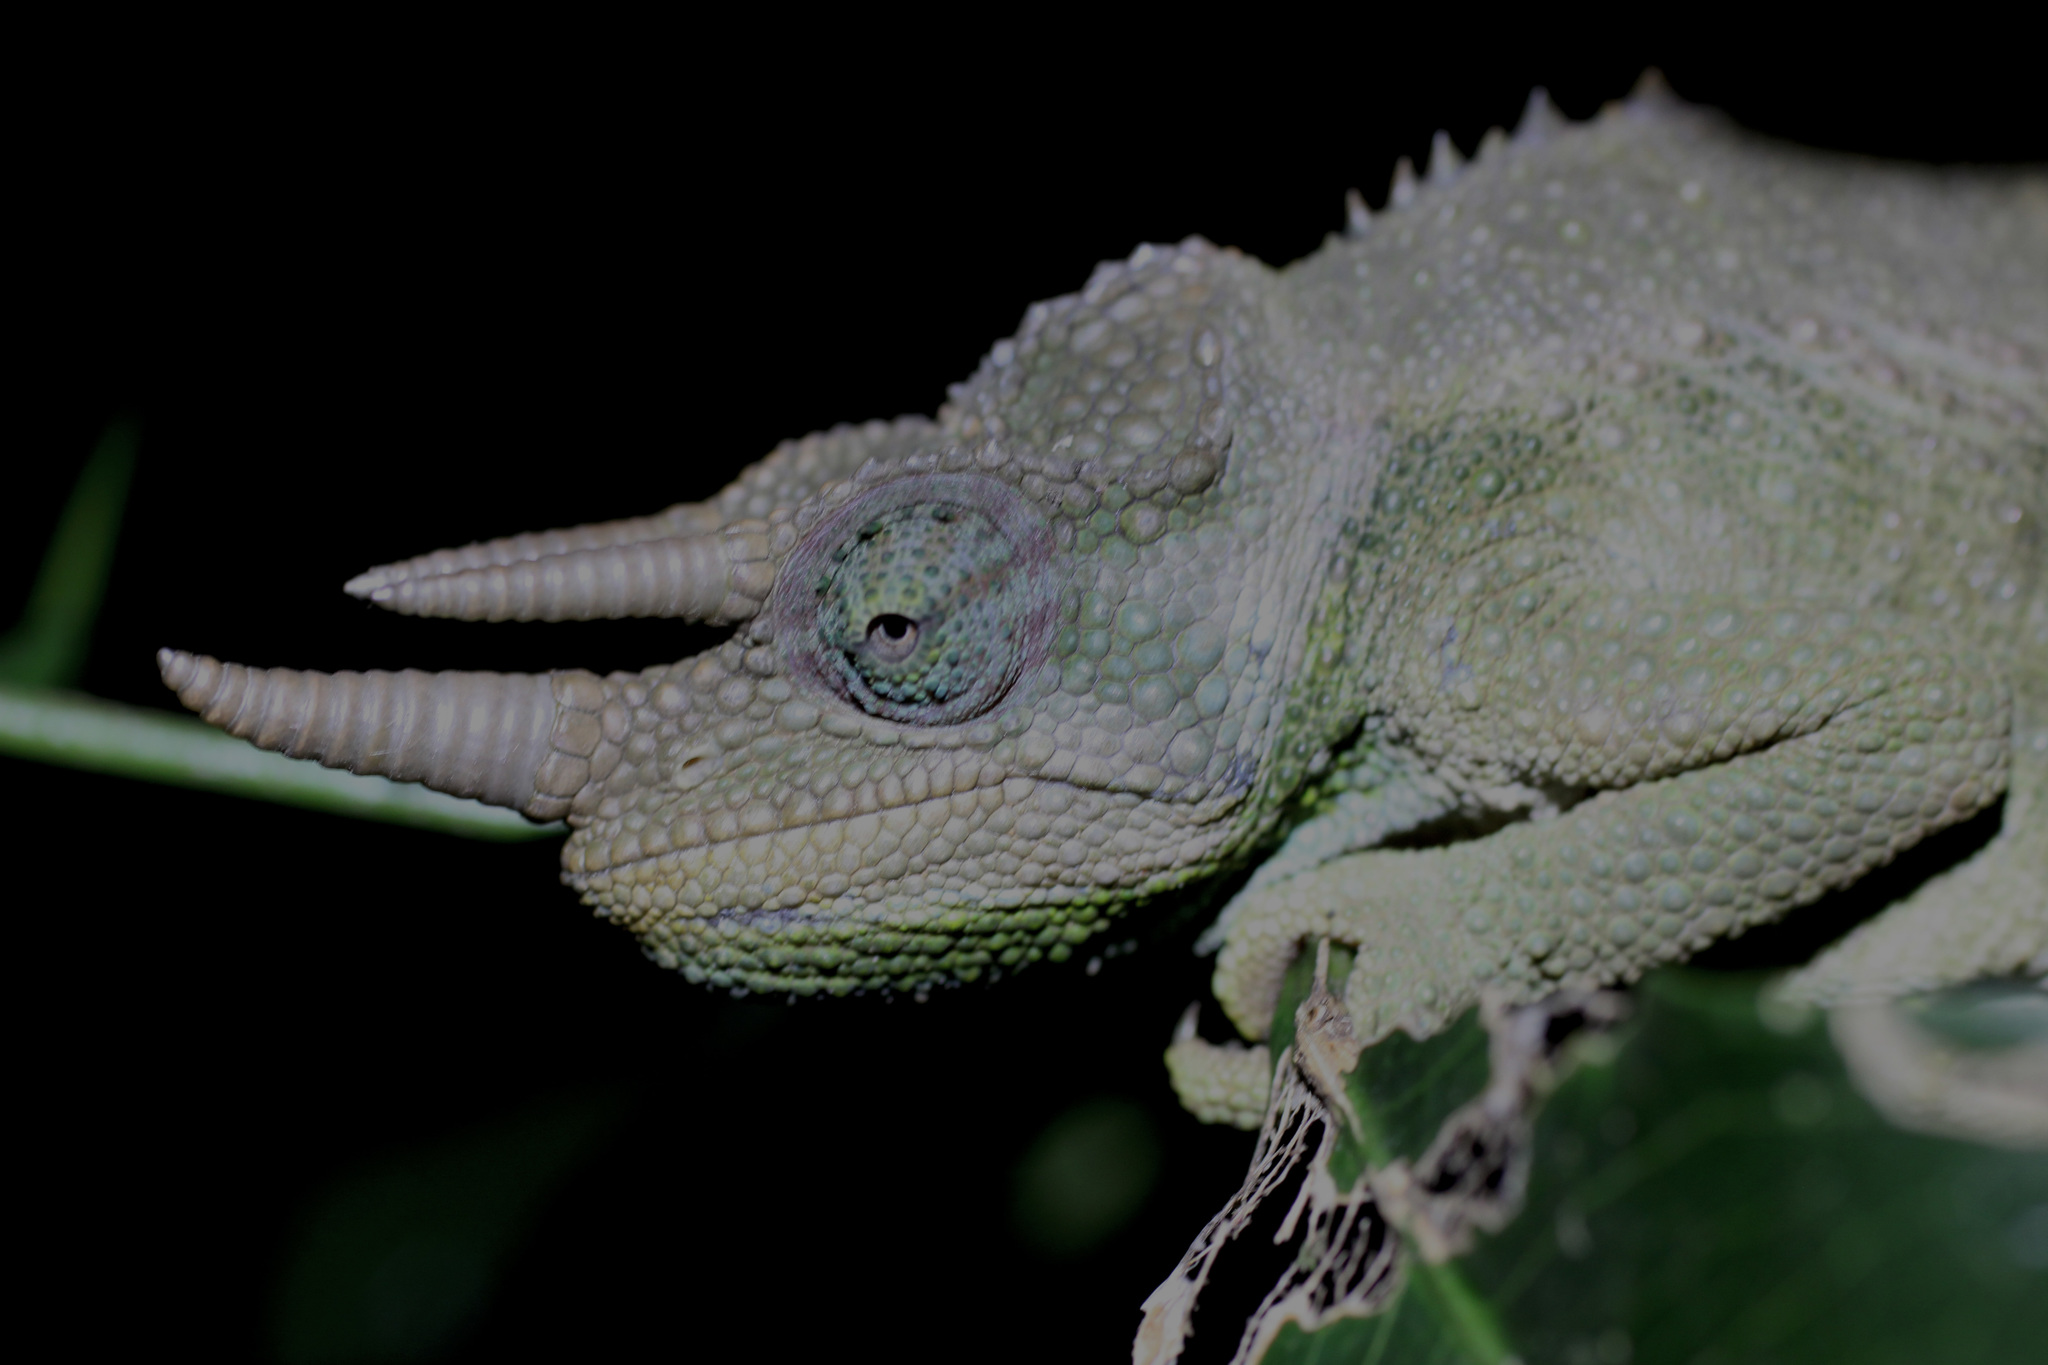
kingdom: Animalia
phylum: Chordata
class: Squamata
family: Chamaeleonidae
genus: Trioceros
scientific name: Trioceros jacksonii
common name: Jackson's chameleon
